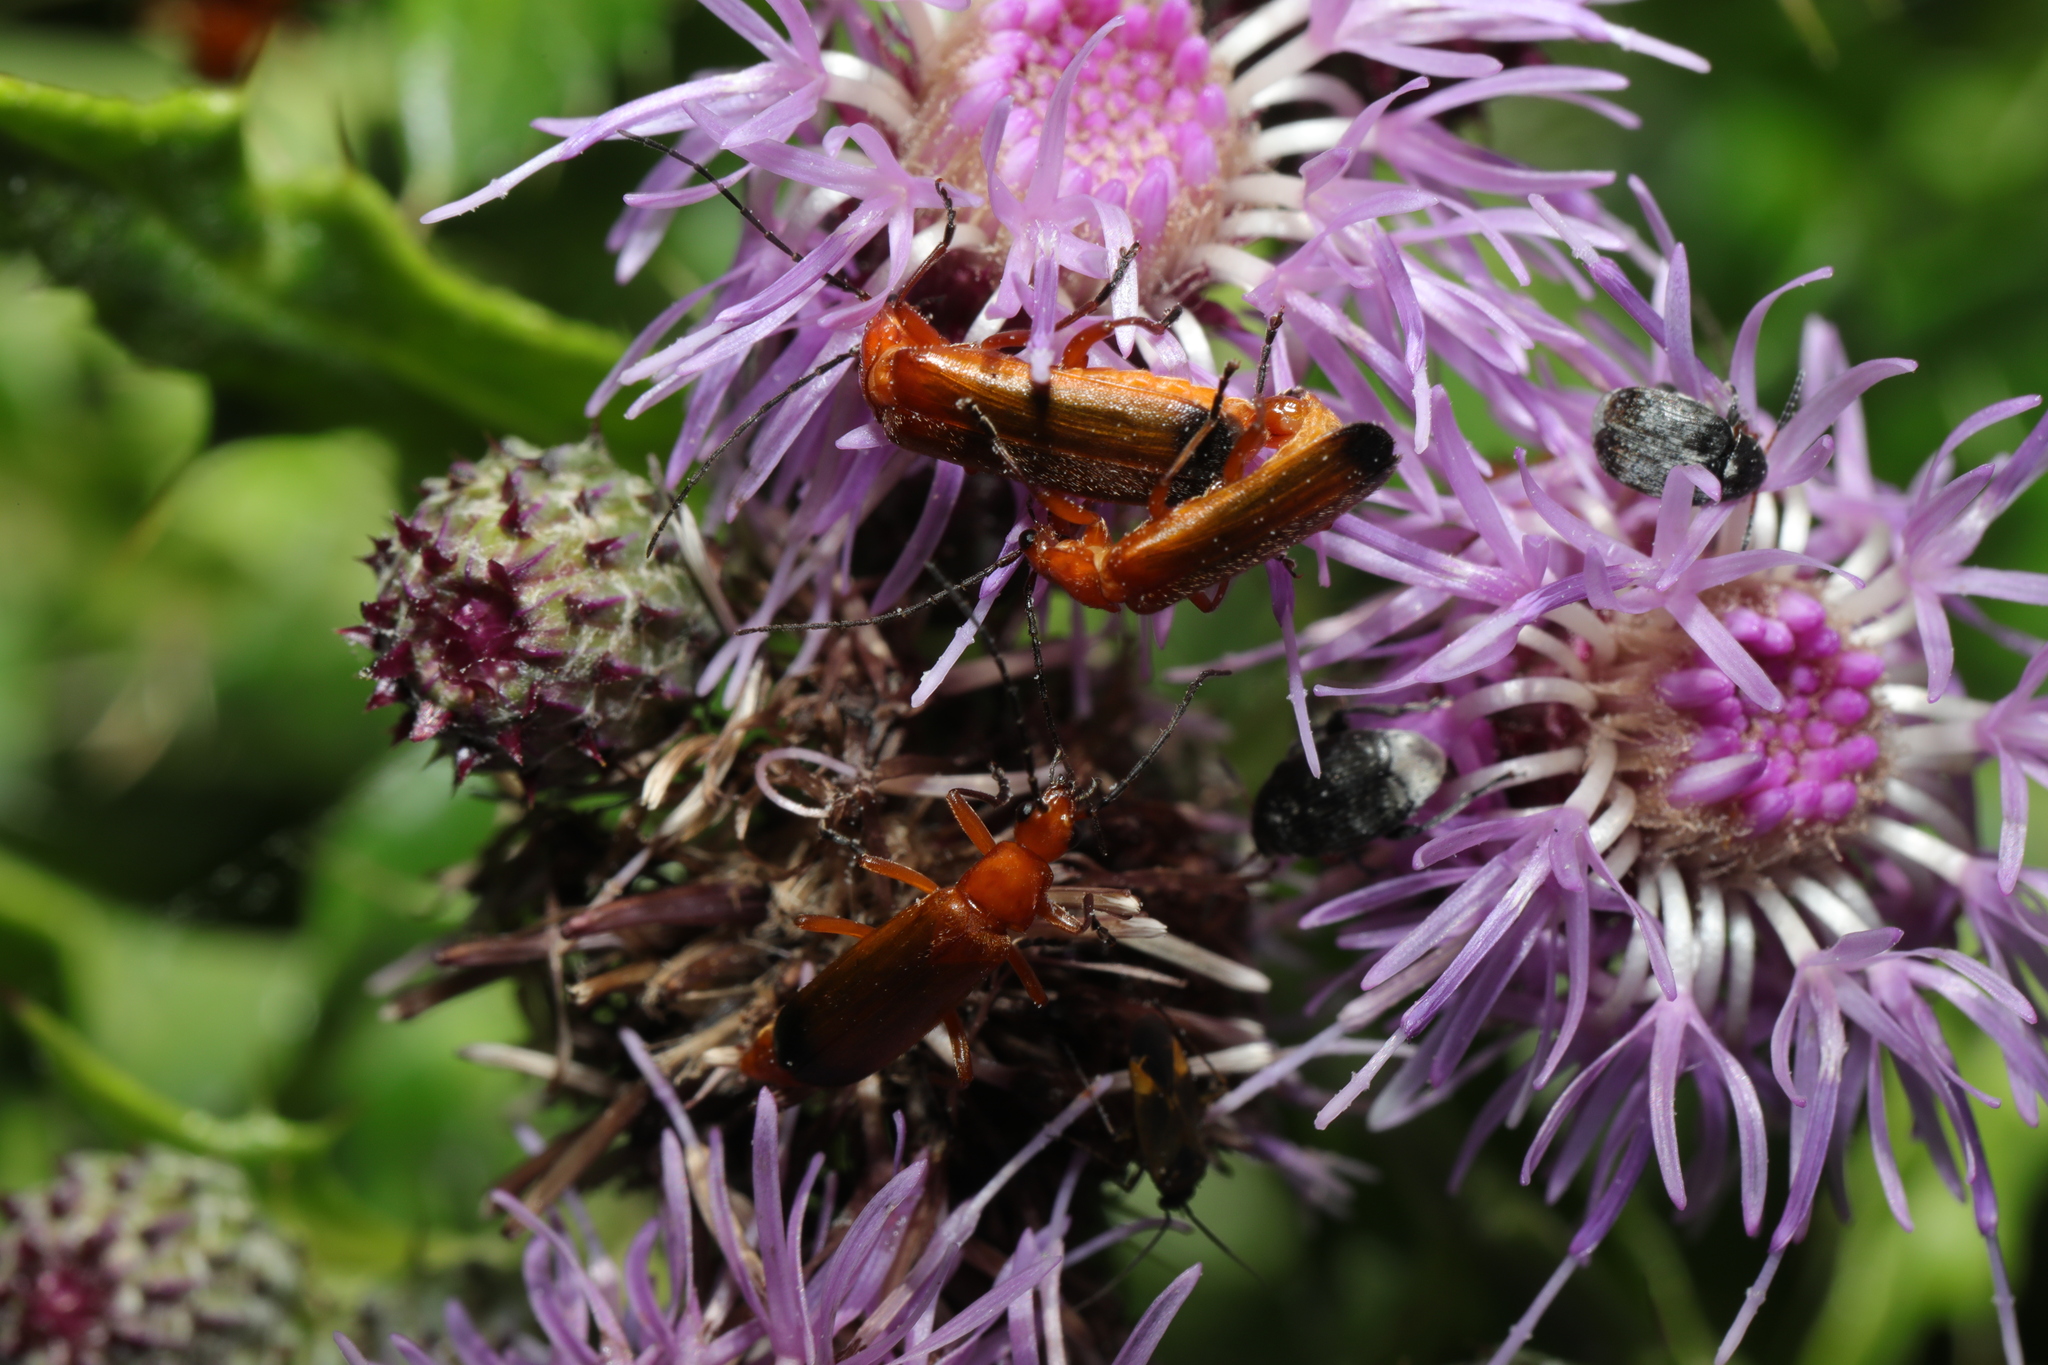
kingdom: Animalia
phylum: Arthropoda
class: Insecta
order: Coleoptera
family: Cantharidae
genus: Rhagonycha
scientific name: Rhagonycha fulva
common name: Common red soldier beetle
